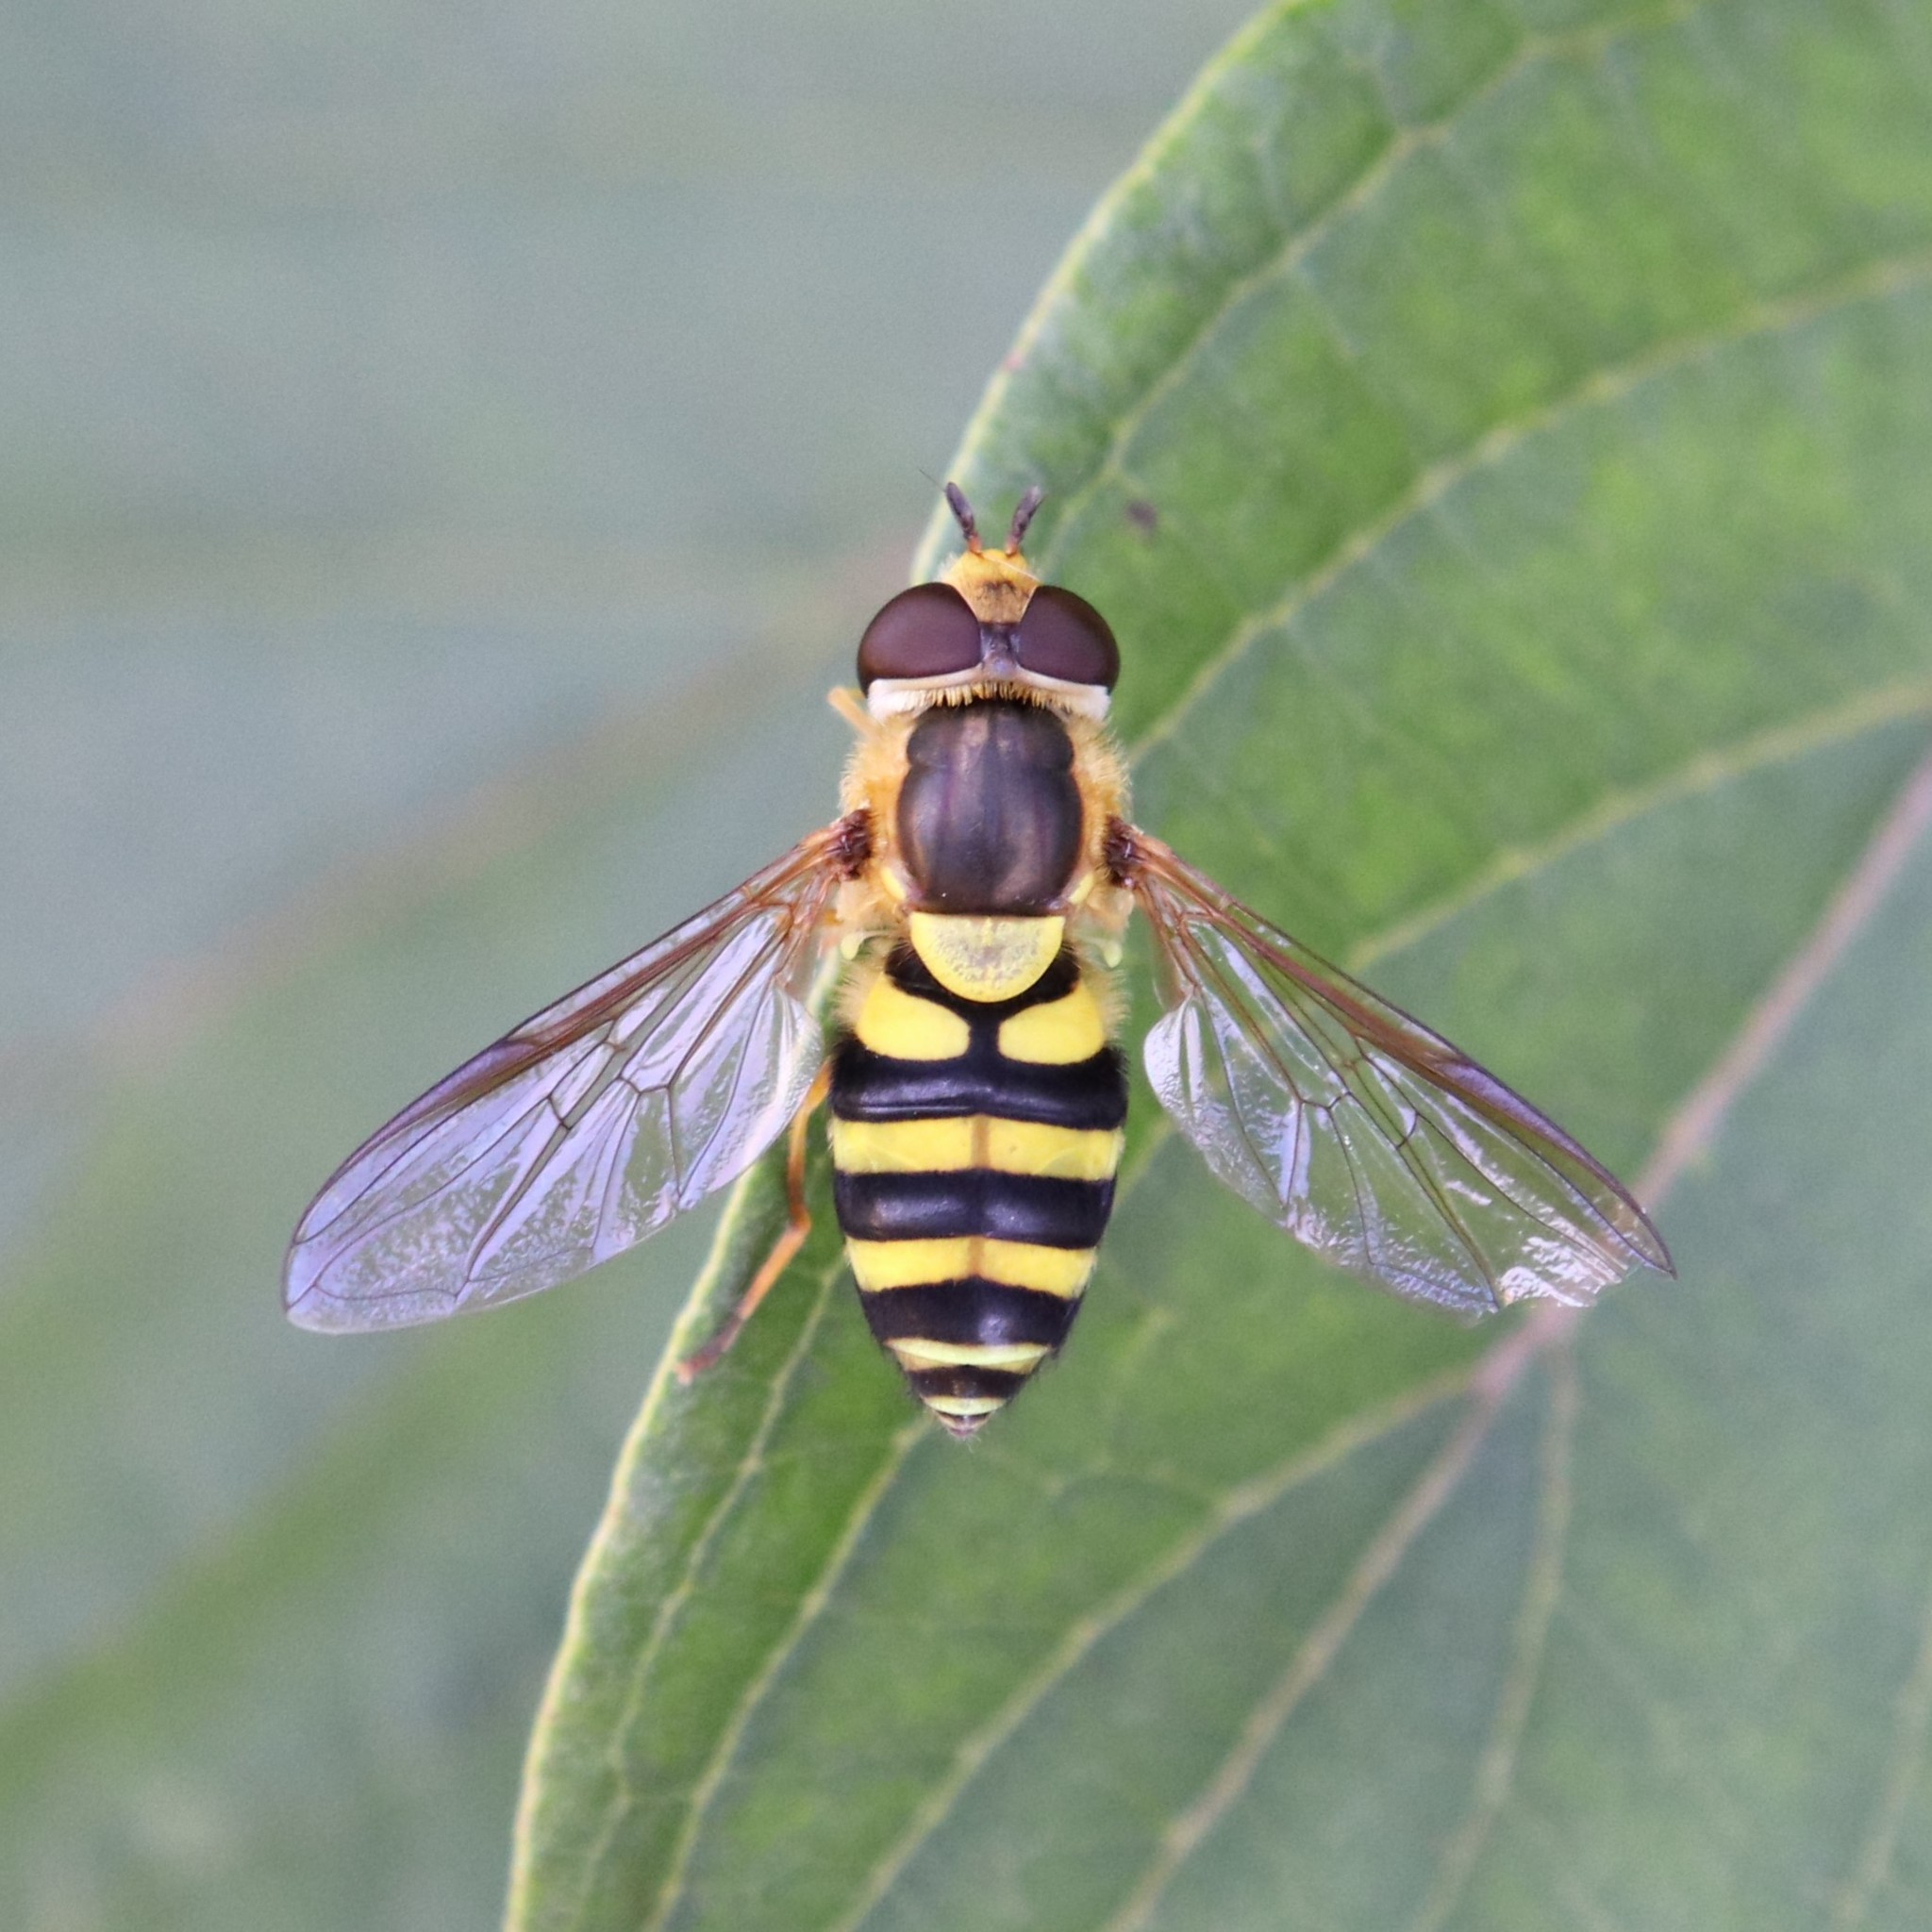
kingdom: Animalia
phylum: Arthropoda
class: Insecta
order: Diptera
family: Syrphidae
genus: Syrphus
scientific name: Syrphus knabi
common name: Eastern flower fly
